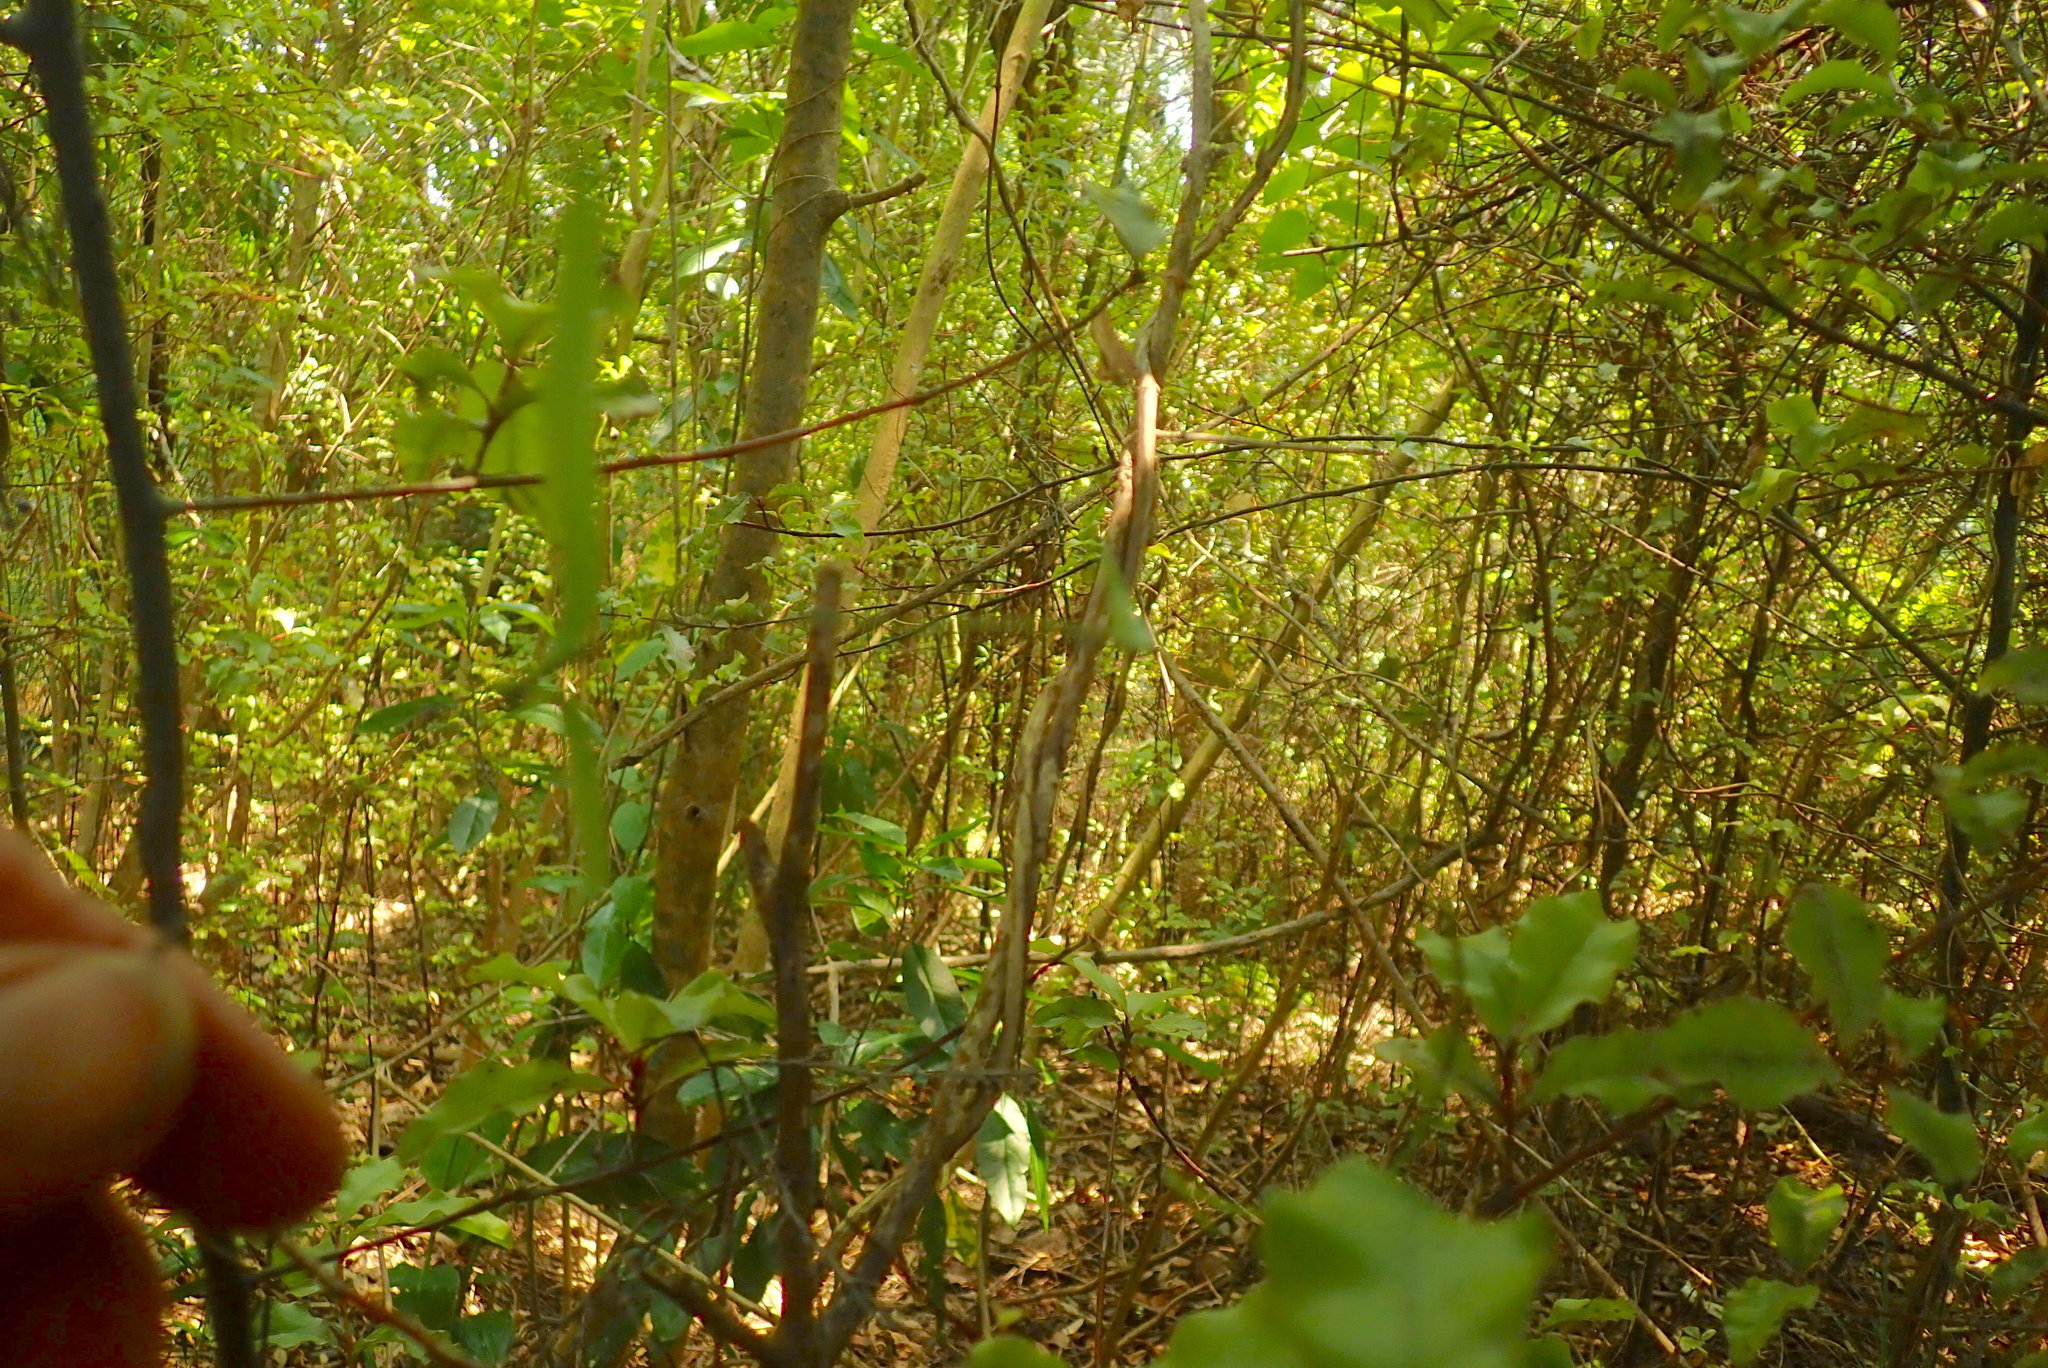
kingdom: Plantae
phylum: Tracheophyta
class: Magnoliopsida
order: Dipsacales
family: Caprifoliaceae
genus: Lonicera
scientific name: Lonicera japonica
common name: Japanese honeysuckle
